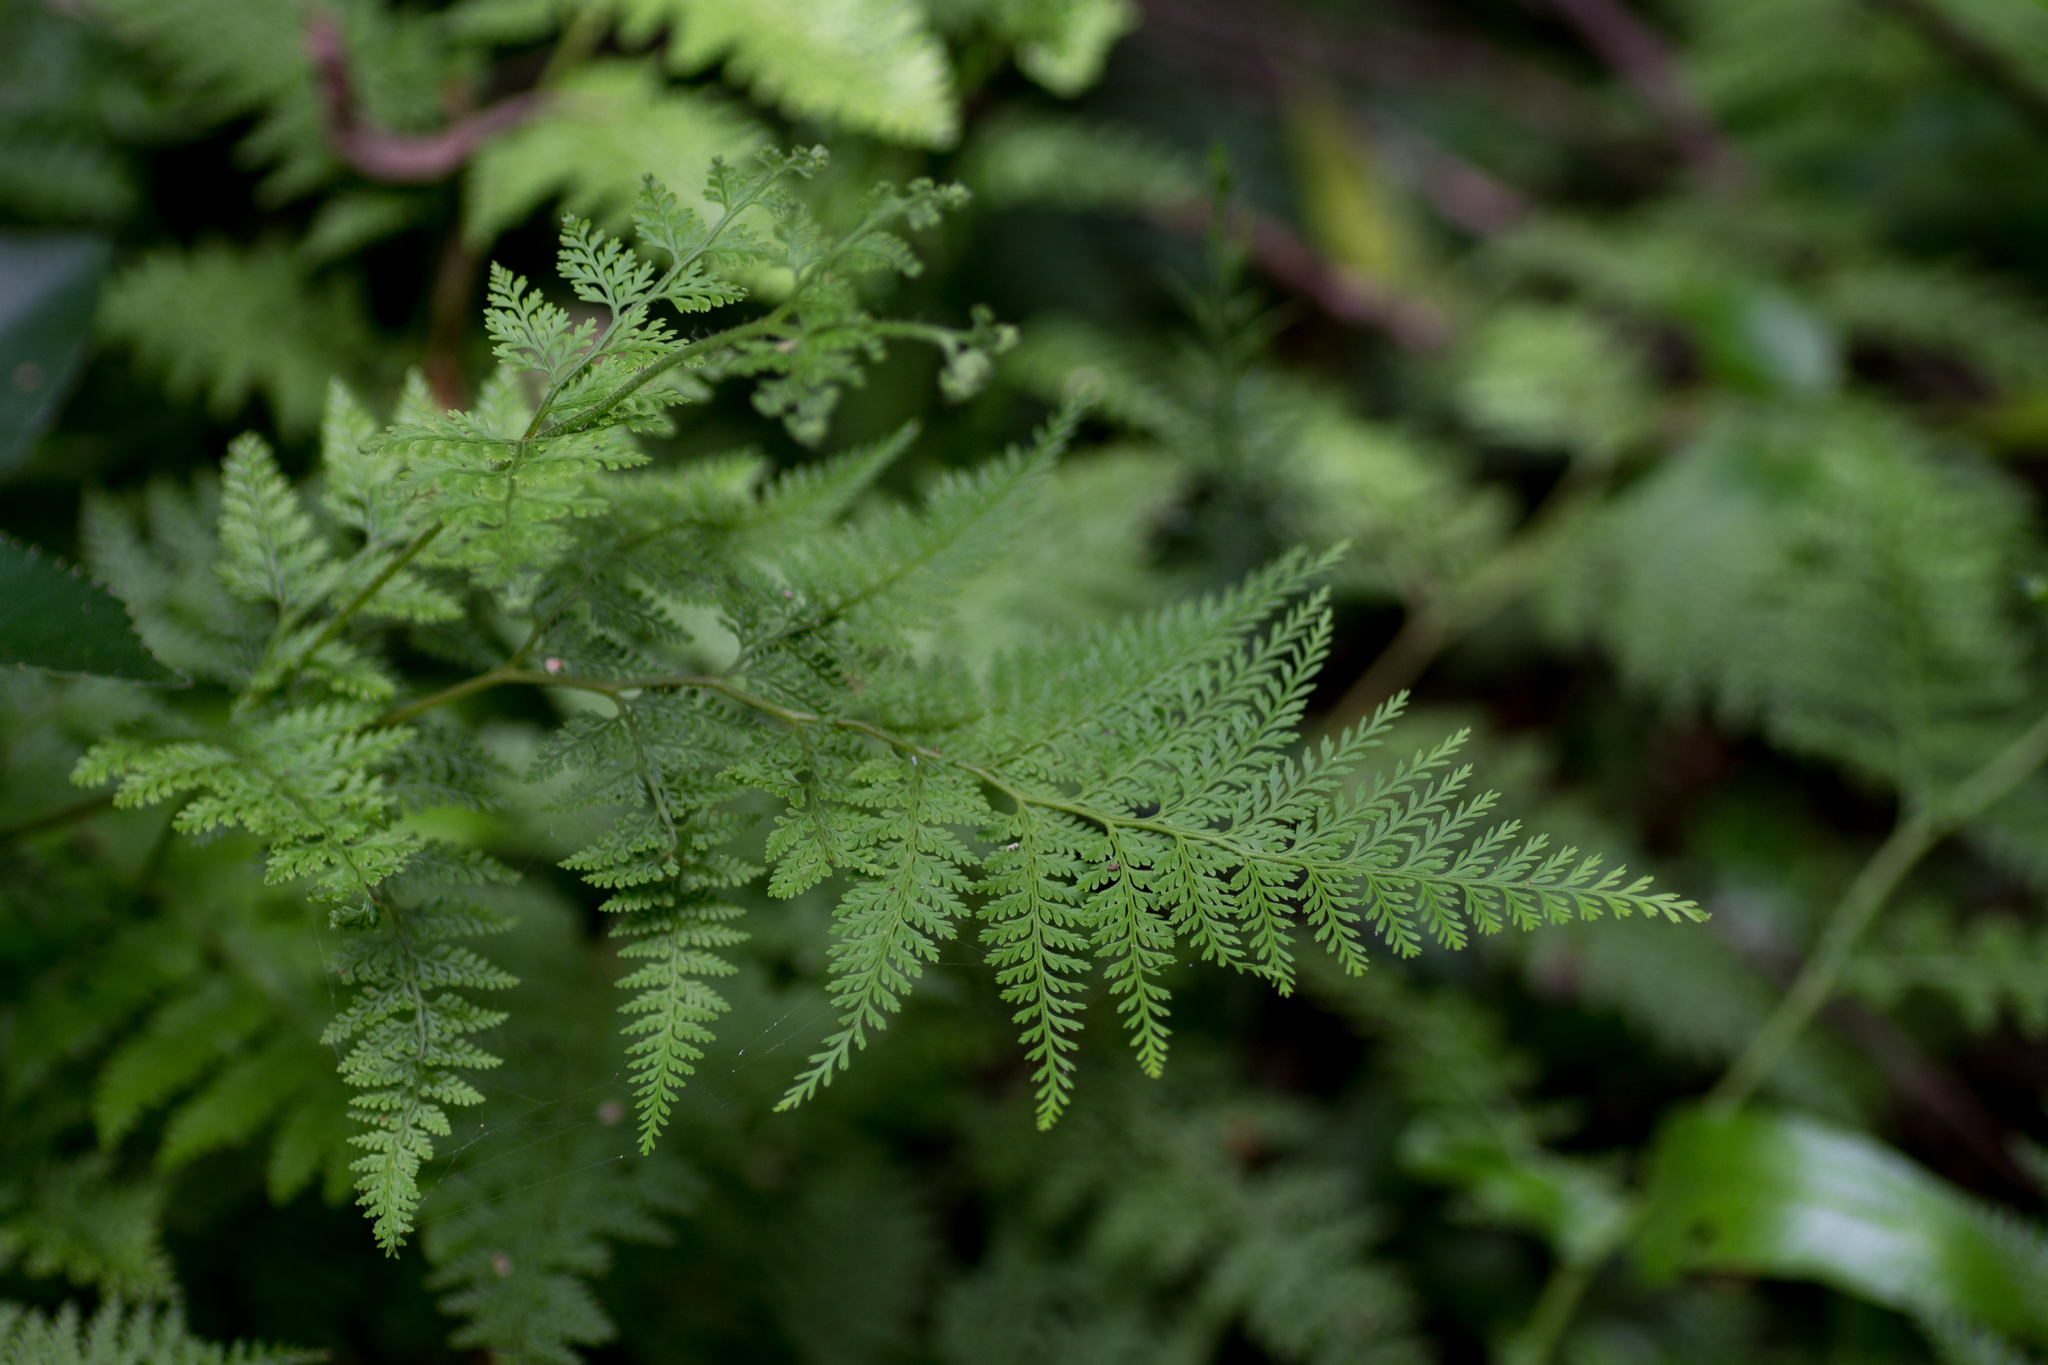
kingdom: Plantae
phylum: Tracheophyta
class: Polypodiopsida
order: Polypodiales
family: Dennstaedtiaceae
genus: Paesia
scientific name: Paesia scaberula
